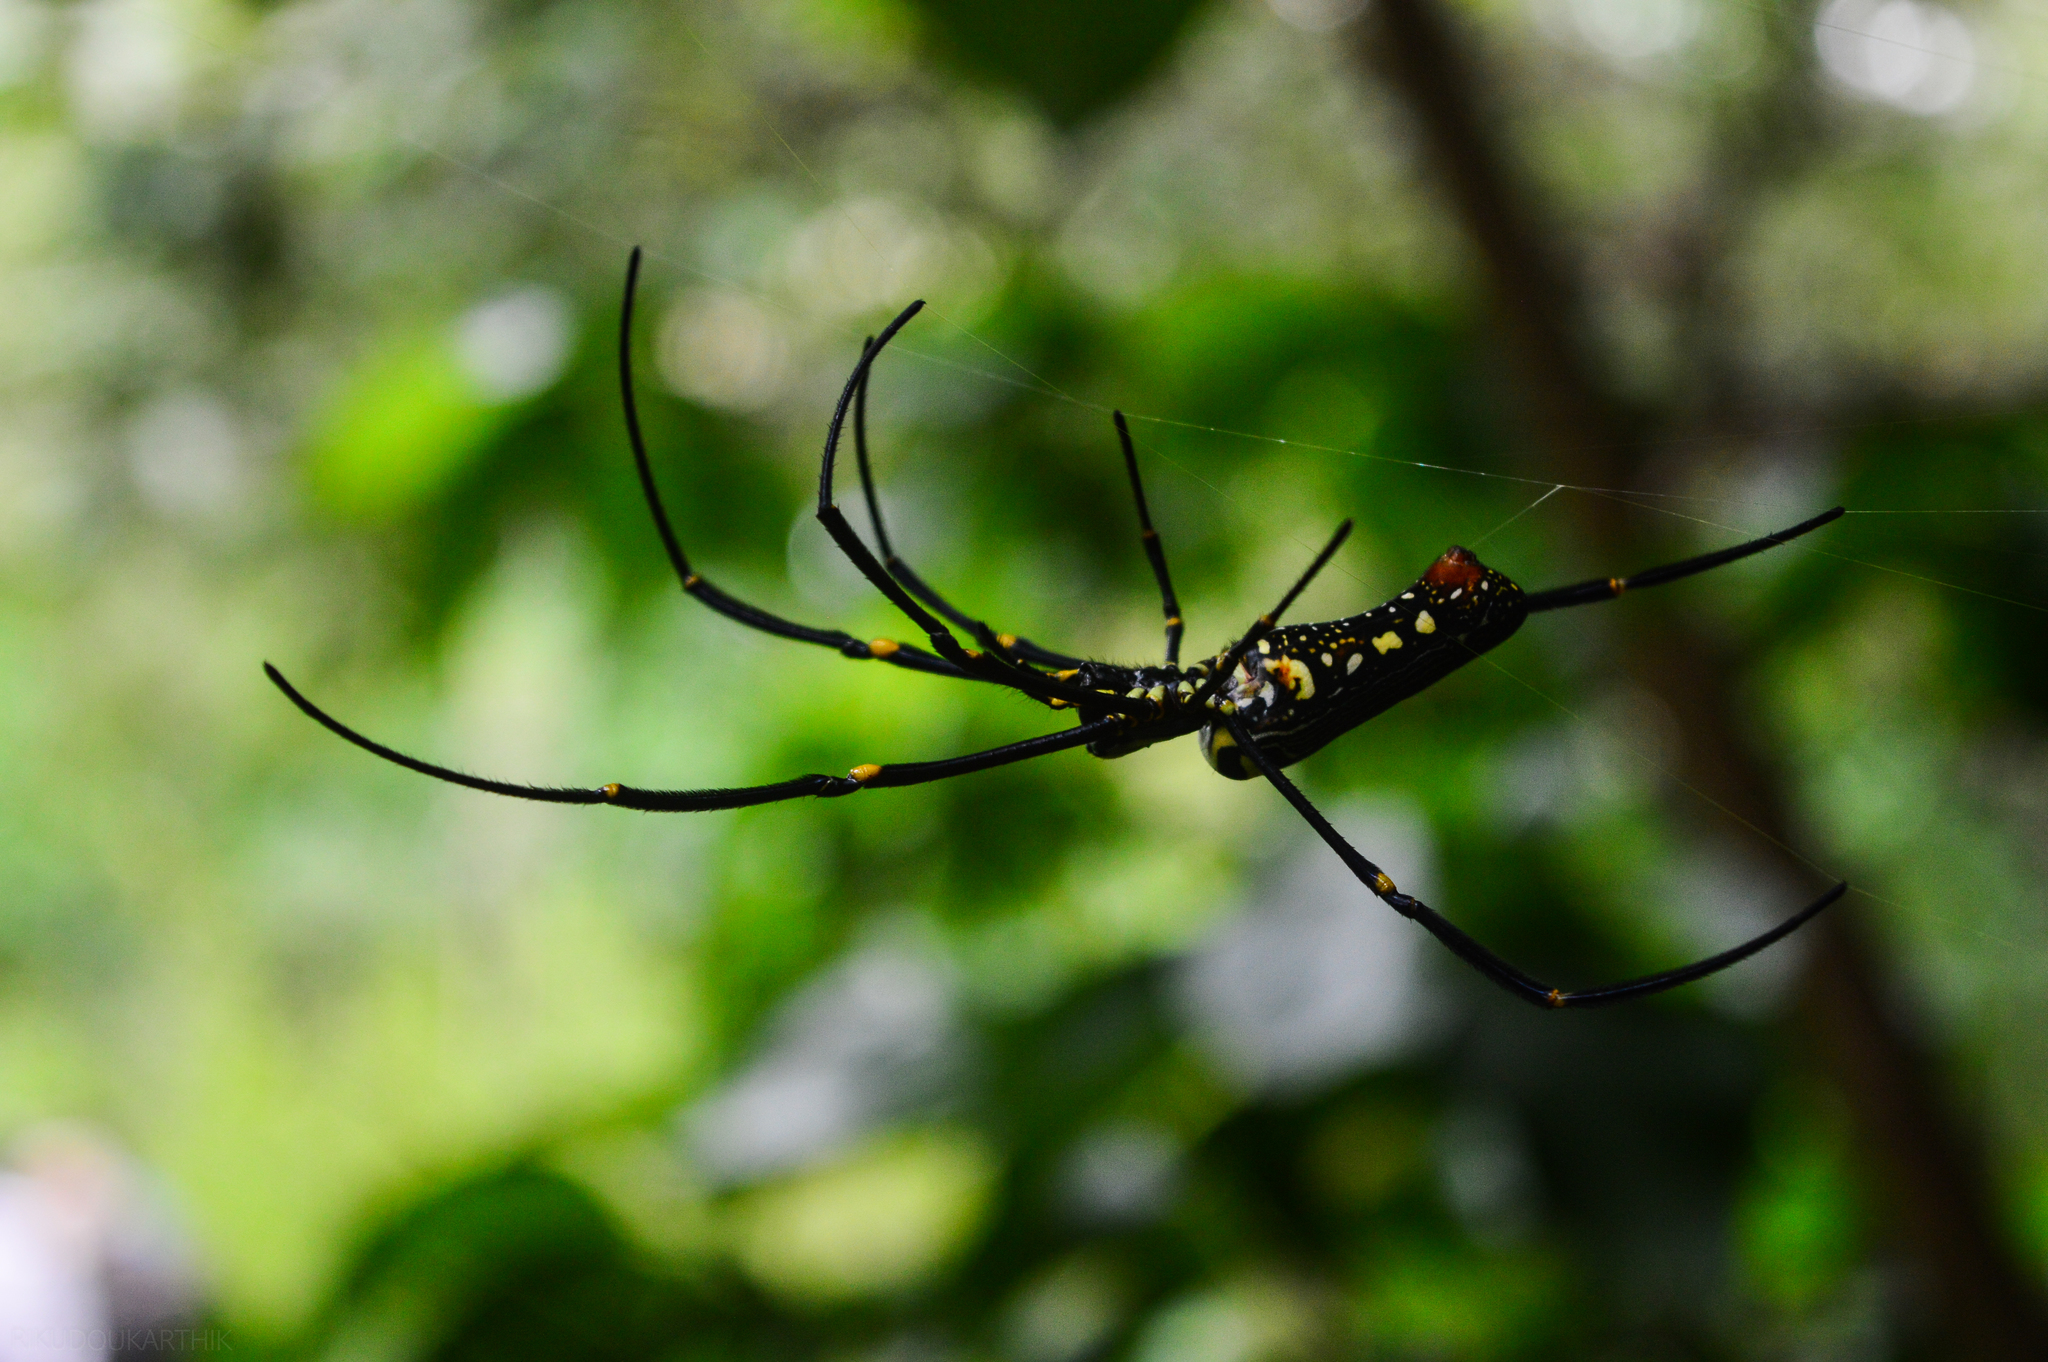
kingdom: Animalia
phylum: Arthropoda
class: Arachnida
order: Araneae
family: Araneidae
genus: Nephila
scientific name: Nephila pilipes
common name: Giant golden orb weaver
